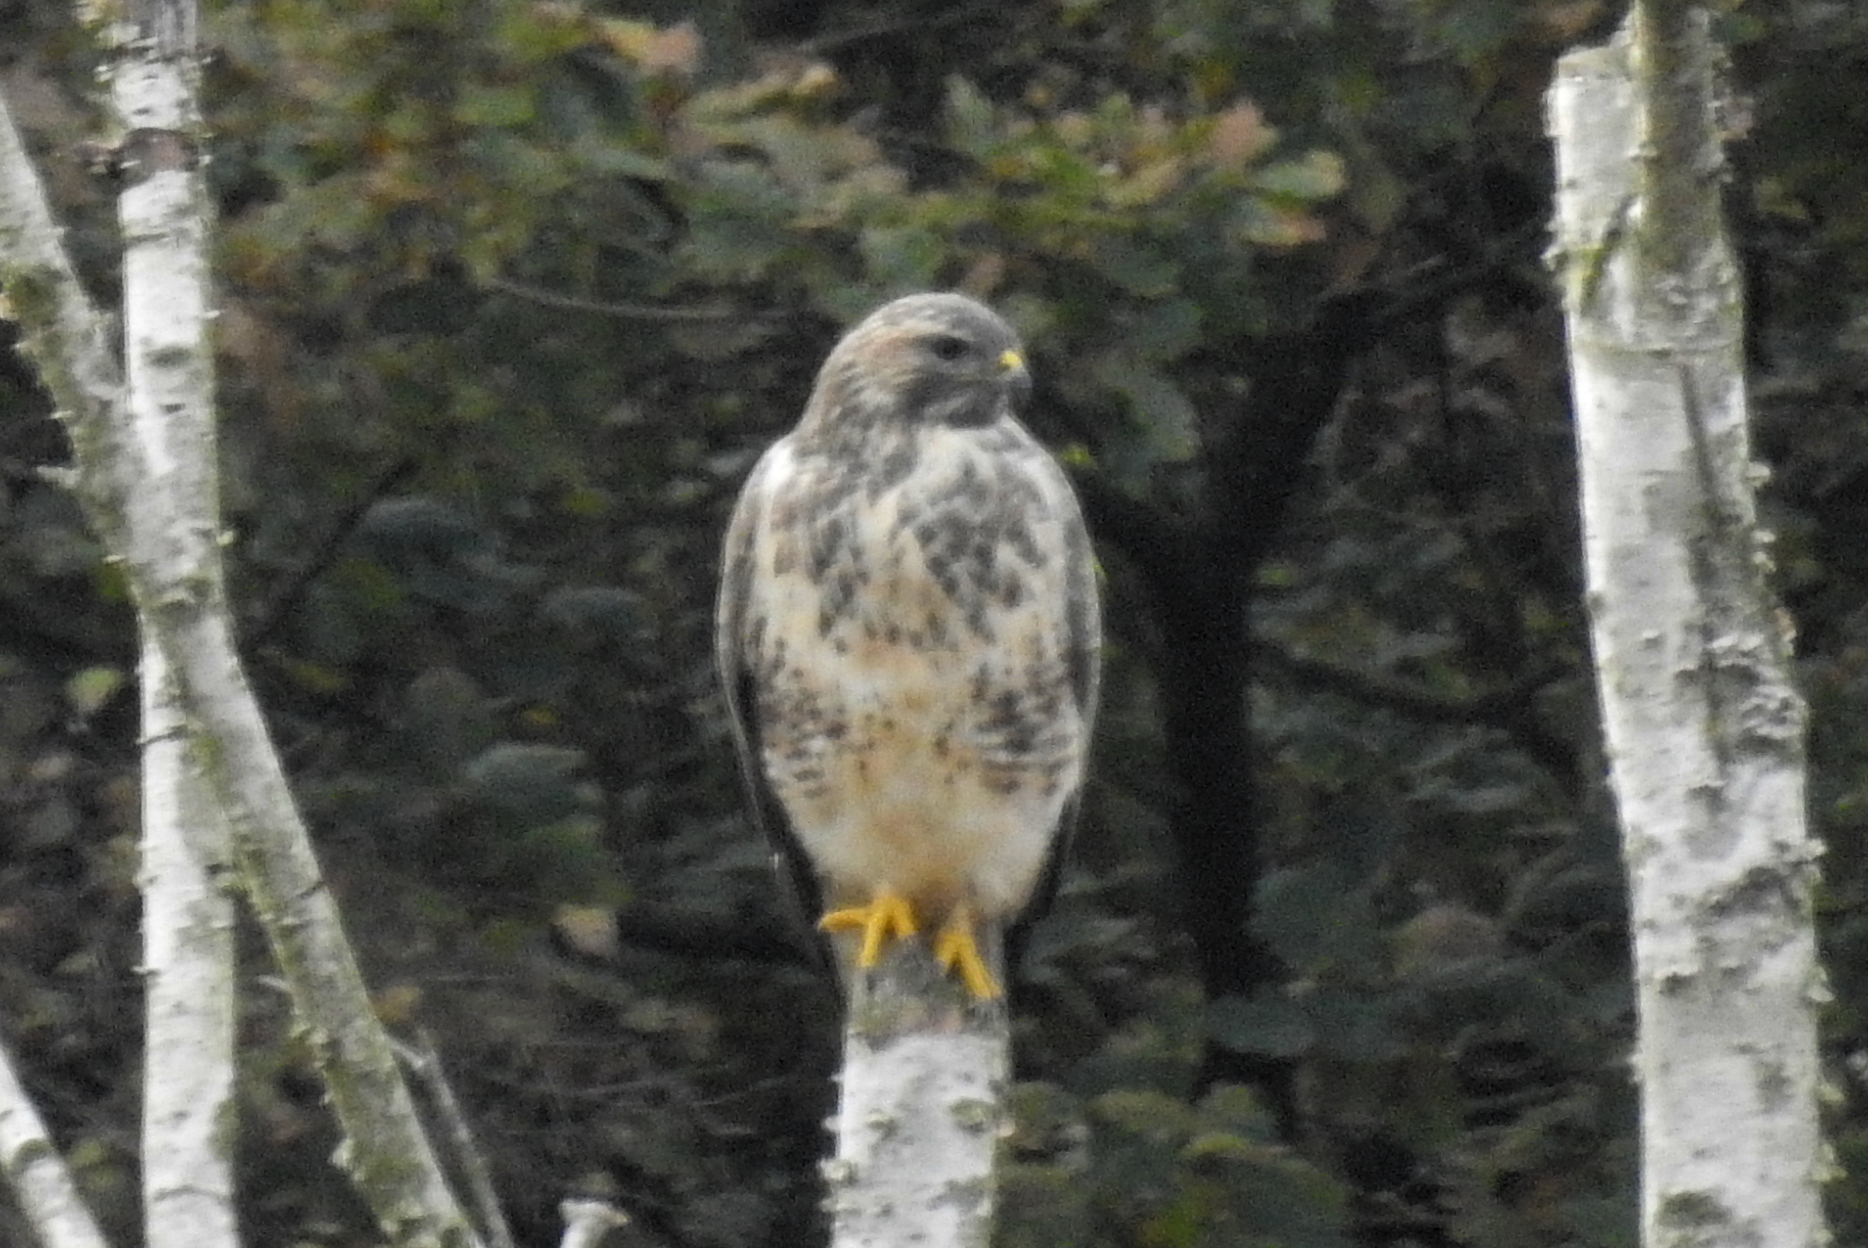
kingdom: Animalia
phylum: Chordata
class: Aves
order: Accipitriformes
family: Accipitridae
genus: Buteo
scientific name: Buteo buteo
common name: Common buzzard
